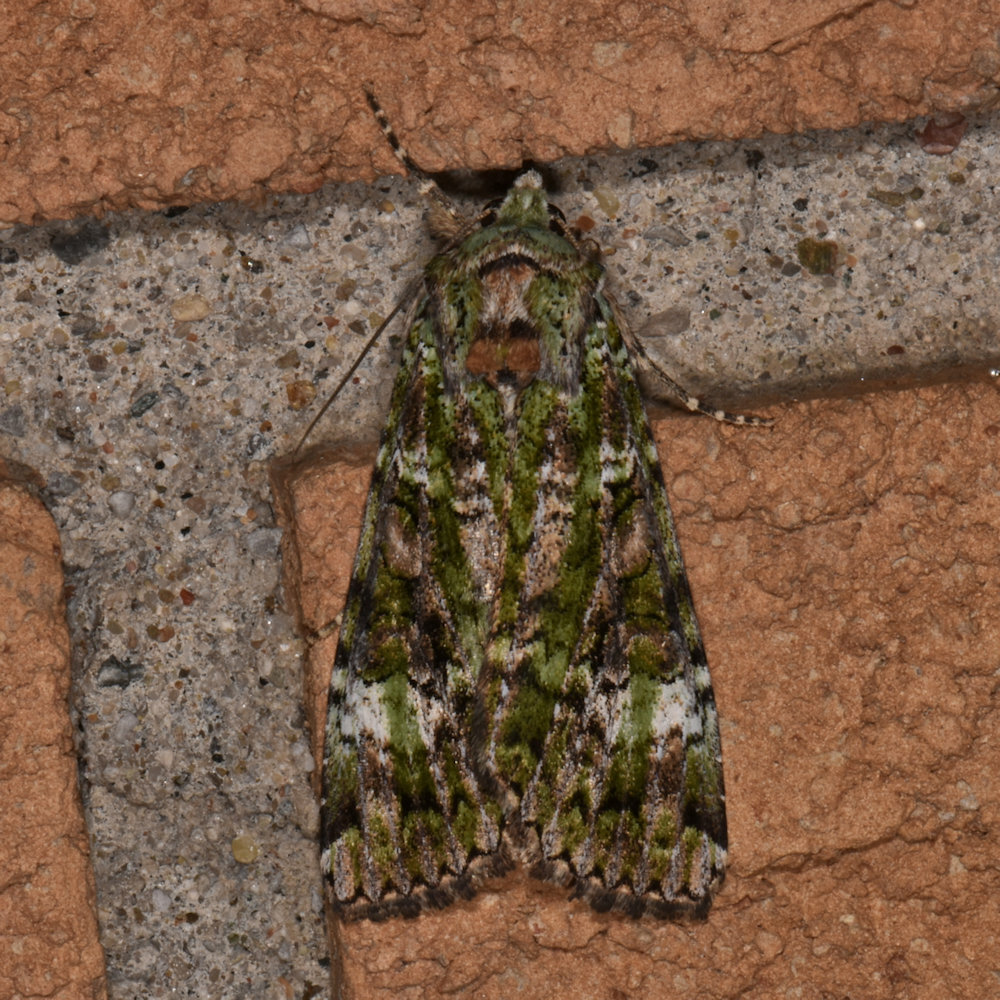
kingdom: Animalia
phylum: Arthropoda
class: Insecta
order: Lepidoptera
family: Noctuidae
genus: Anaplectoides
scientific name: Anaplectoides prasina
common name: Green arches
